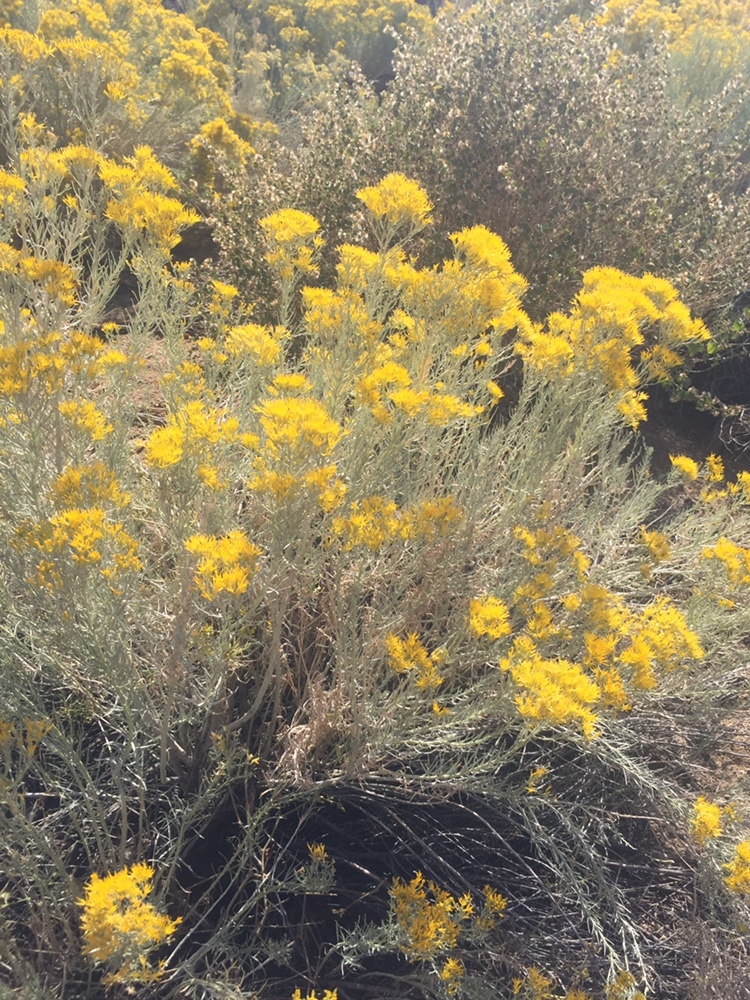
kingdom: Plantae
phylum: Tracheophyta
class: Magnoliopsida
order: Asterales
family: Asteraceae
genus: Ericameria
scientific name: Ericameria nauseosa
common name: Rubber rabbitbrush
